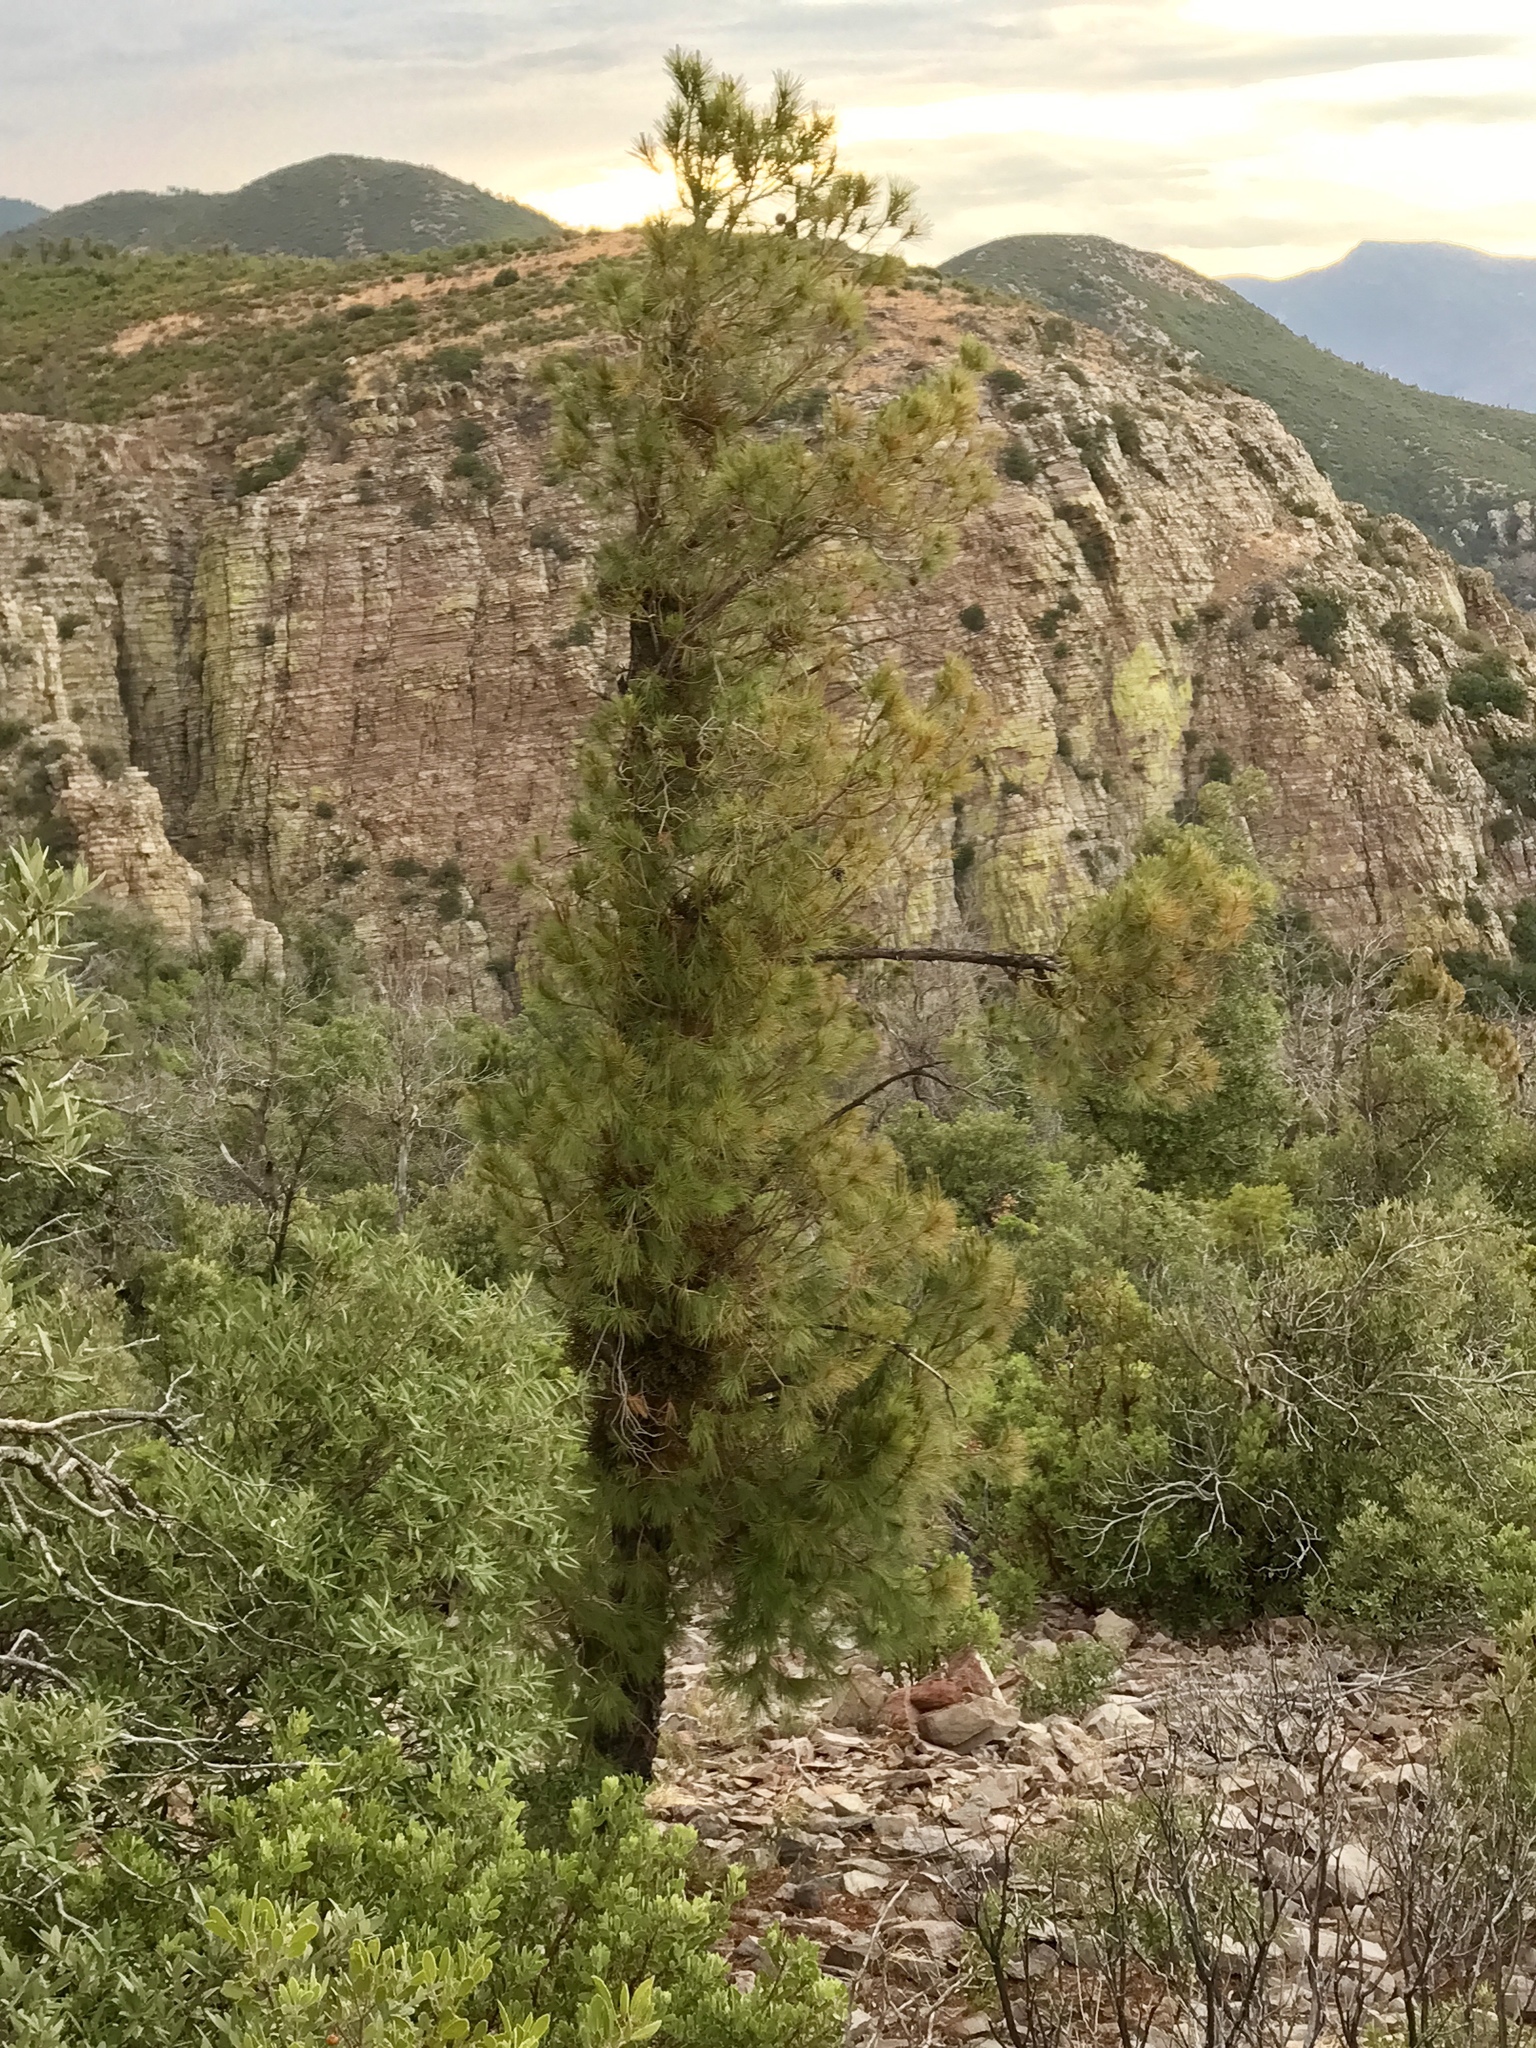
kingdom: Plantae
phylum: Tracheophyta
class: Pinopsida
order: Pinales
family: Pinaceae
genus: Pinus
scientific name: Pinus strobiformis
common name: Southwestern white pine
